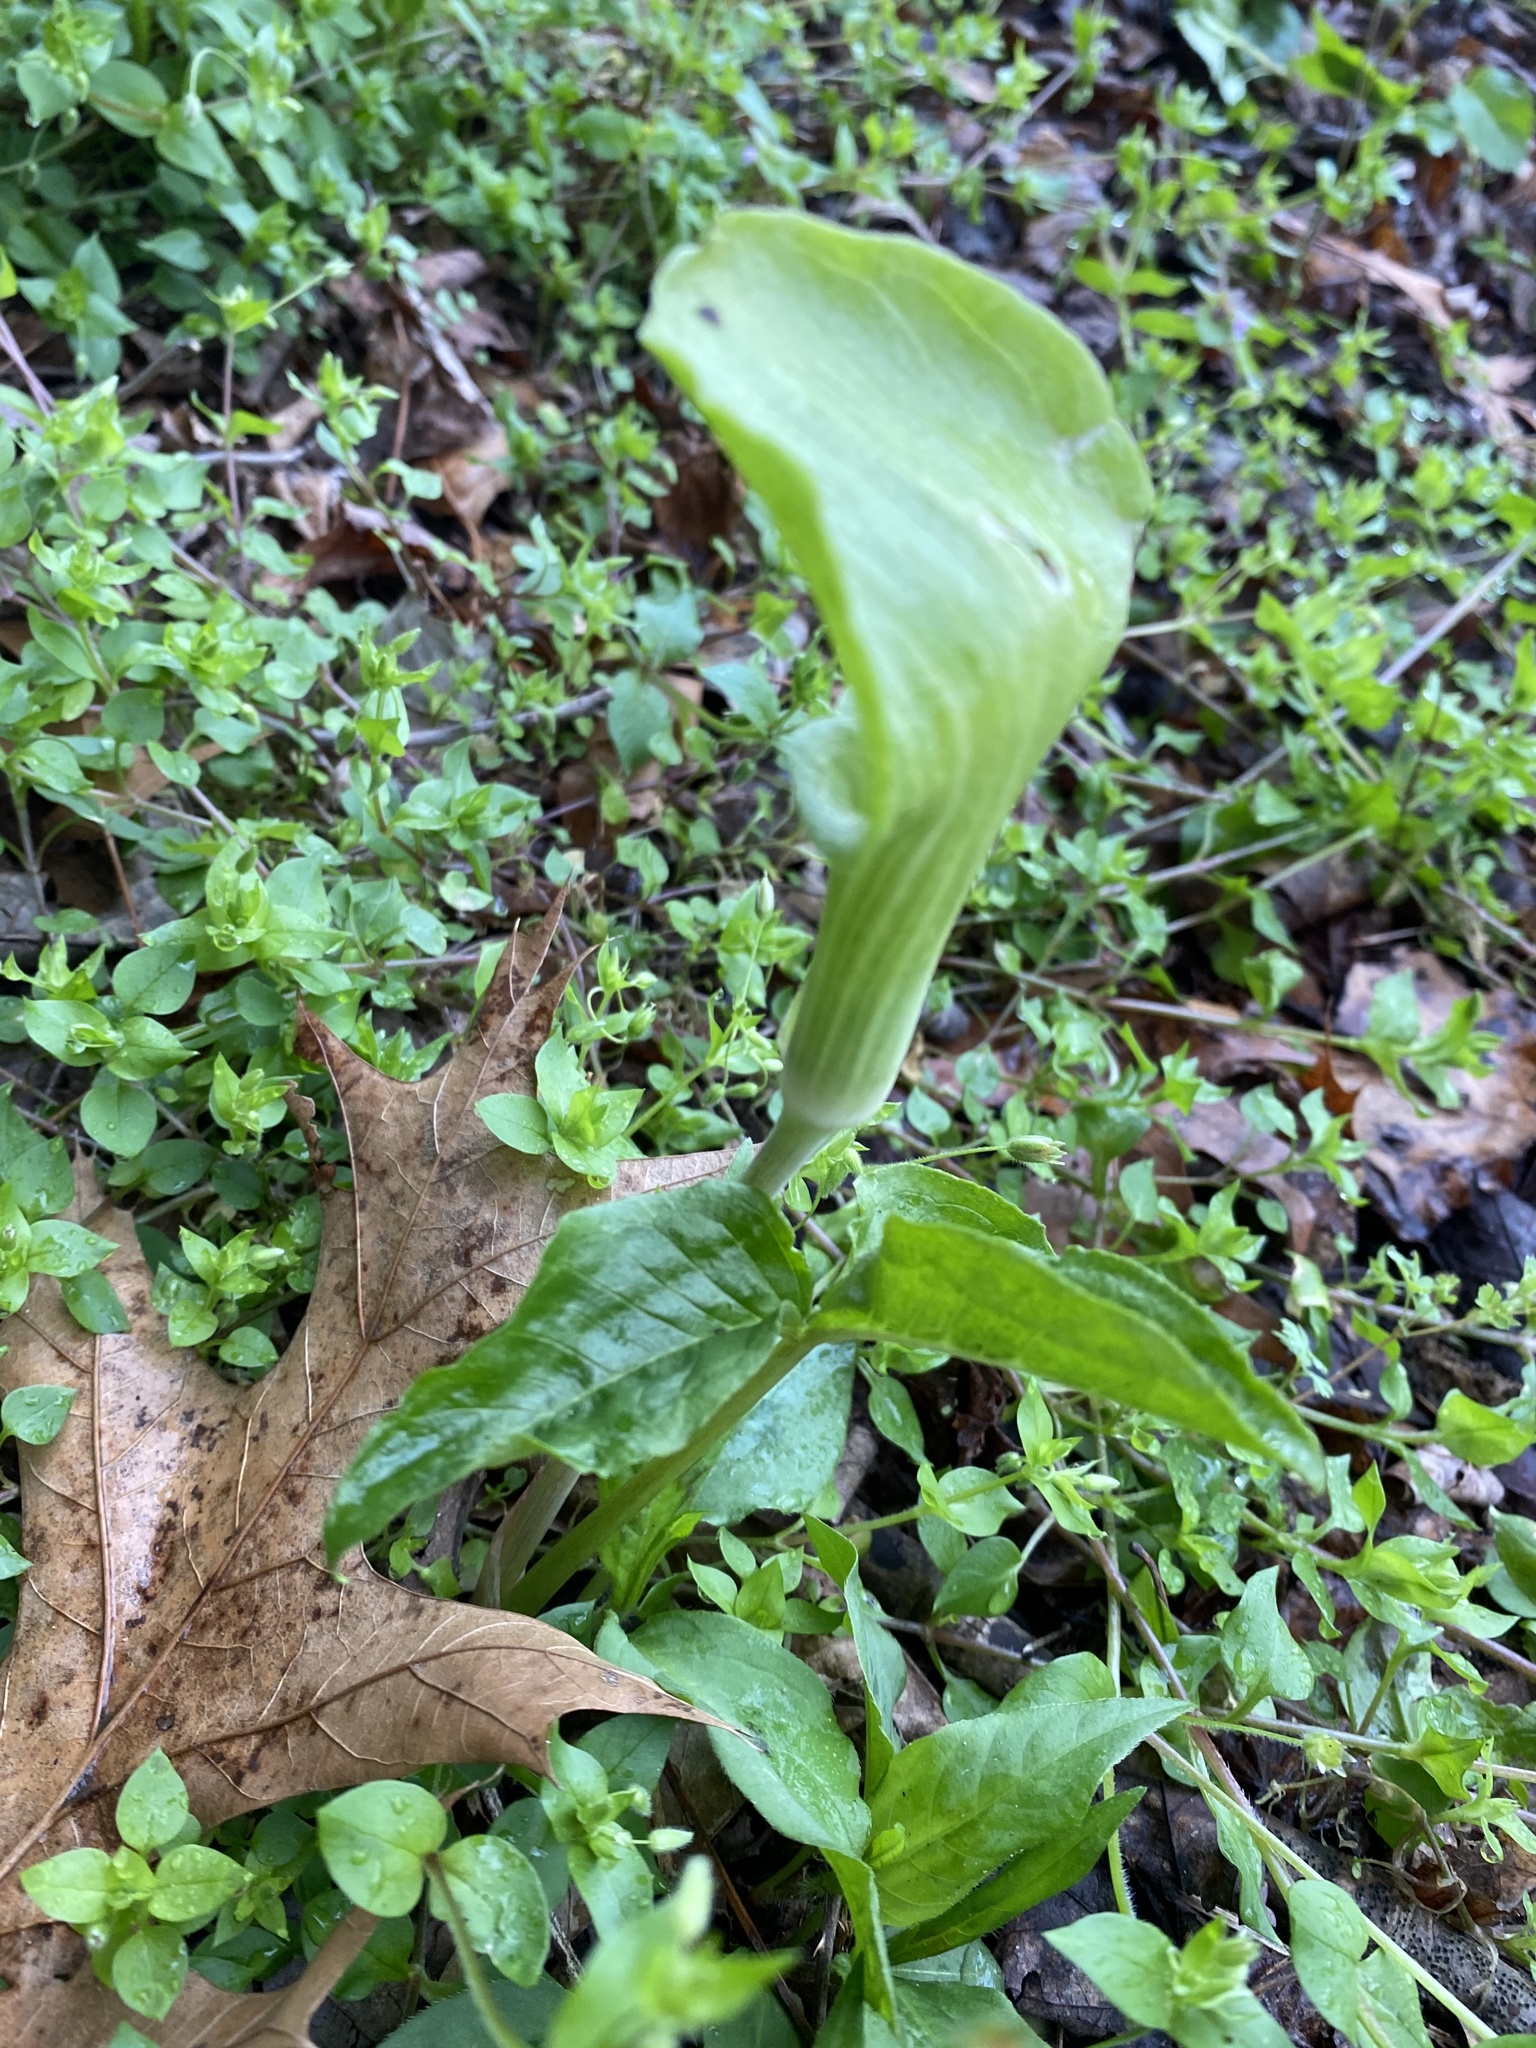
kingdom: Plantae
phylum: Tracheophyta
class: Liliopsida
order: Alismatales
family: Araceae
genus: Arisaema
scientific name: Arisaema triphyllum
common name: Jack-in-the-pulpit
